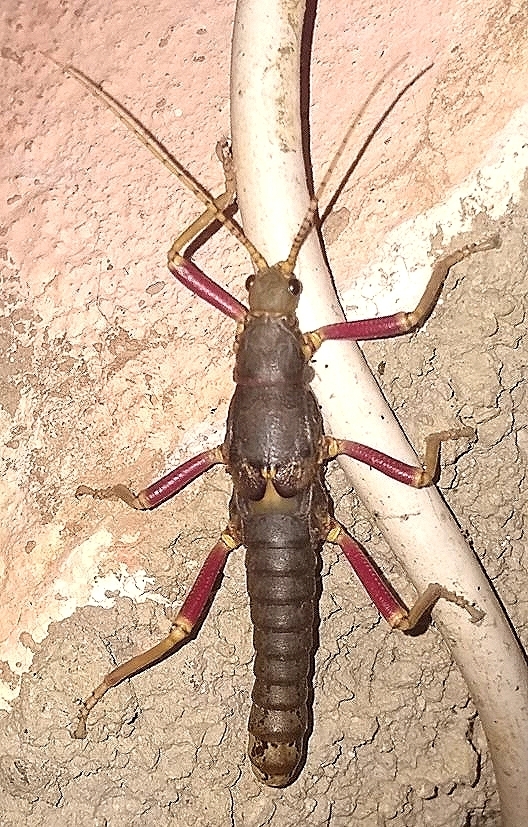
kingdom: Animalia
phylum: Arthropoda
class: Insecta
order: Phasmida
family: Agathemeridae
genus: Agathemera
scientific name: Agathemera luteola
